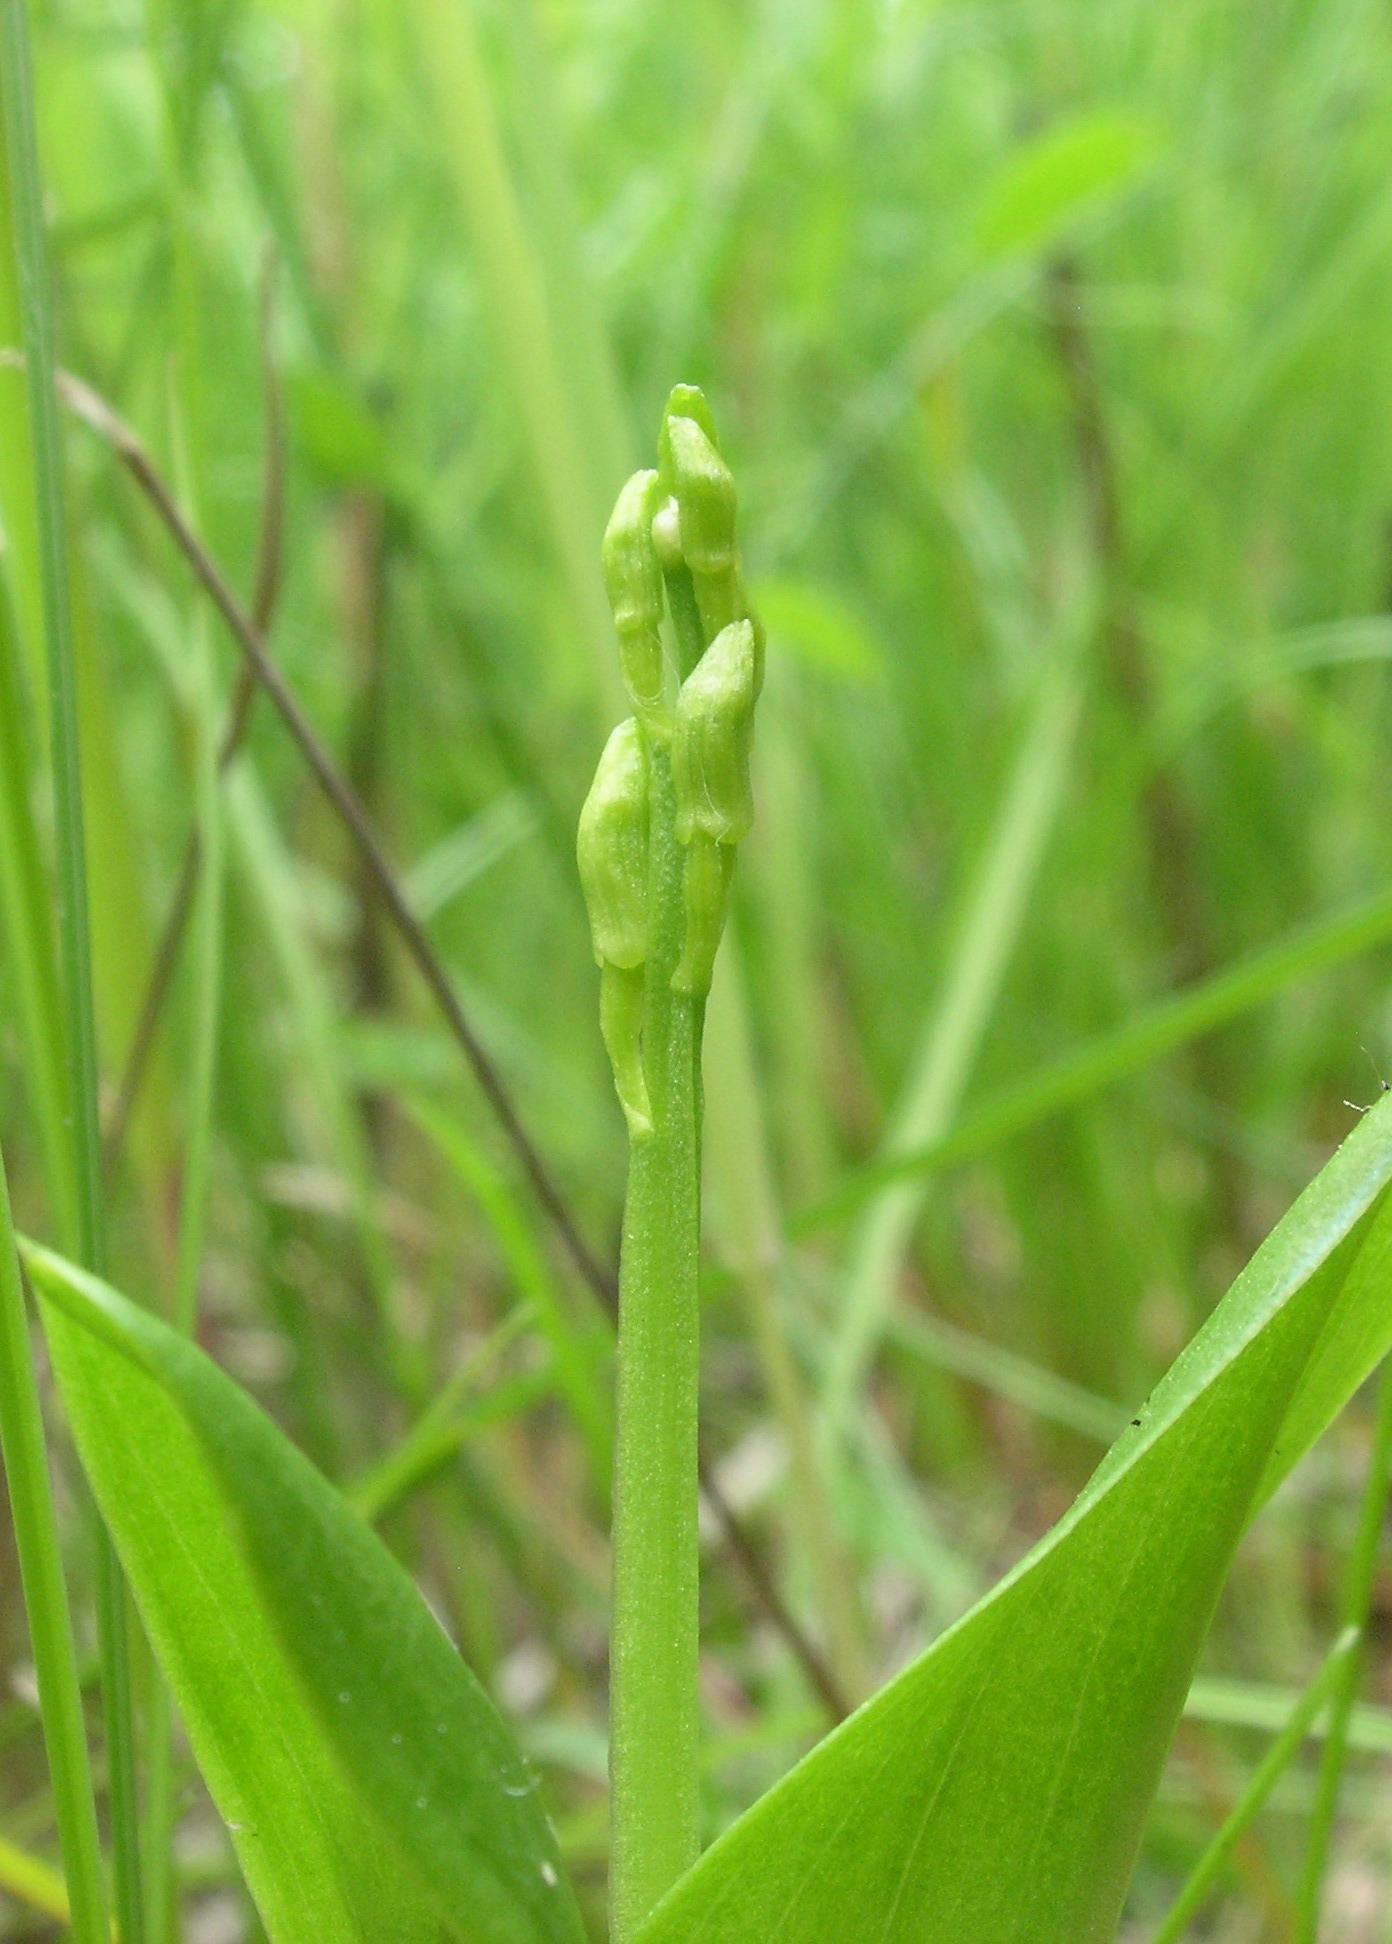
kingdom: Animalia
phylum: Arthropoda
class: Insecta
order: Coleoptera
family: Curculionidae
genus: Liparis
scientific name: Liparis loeselii
